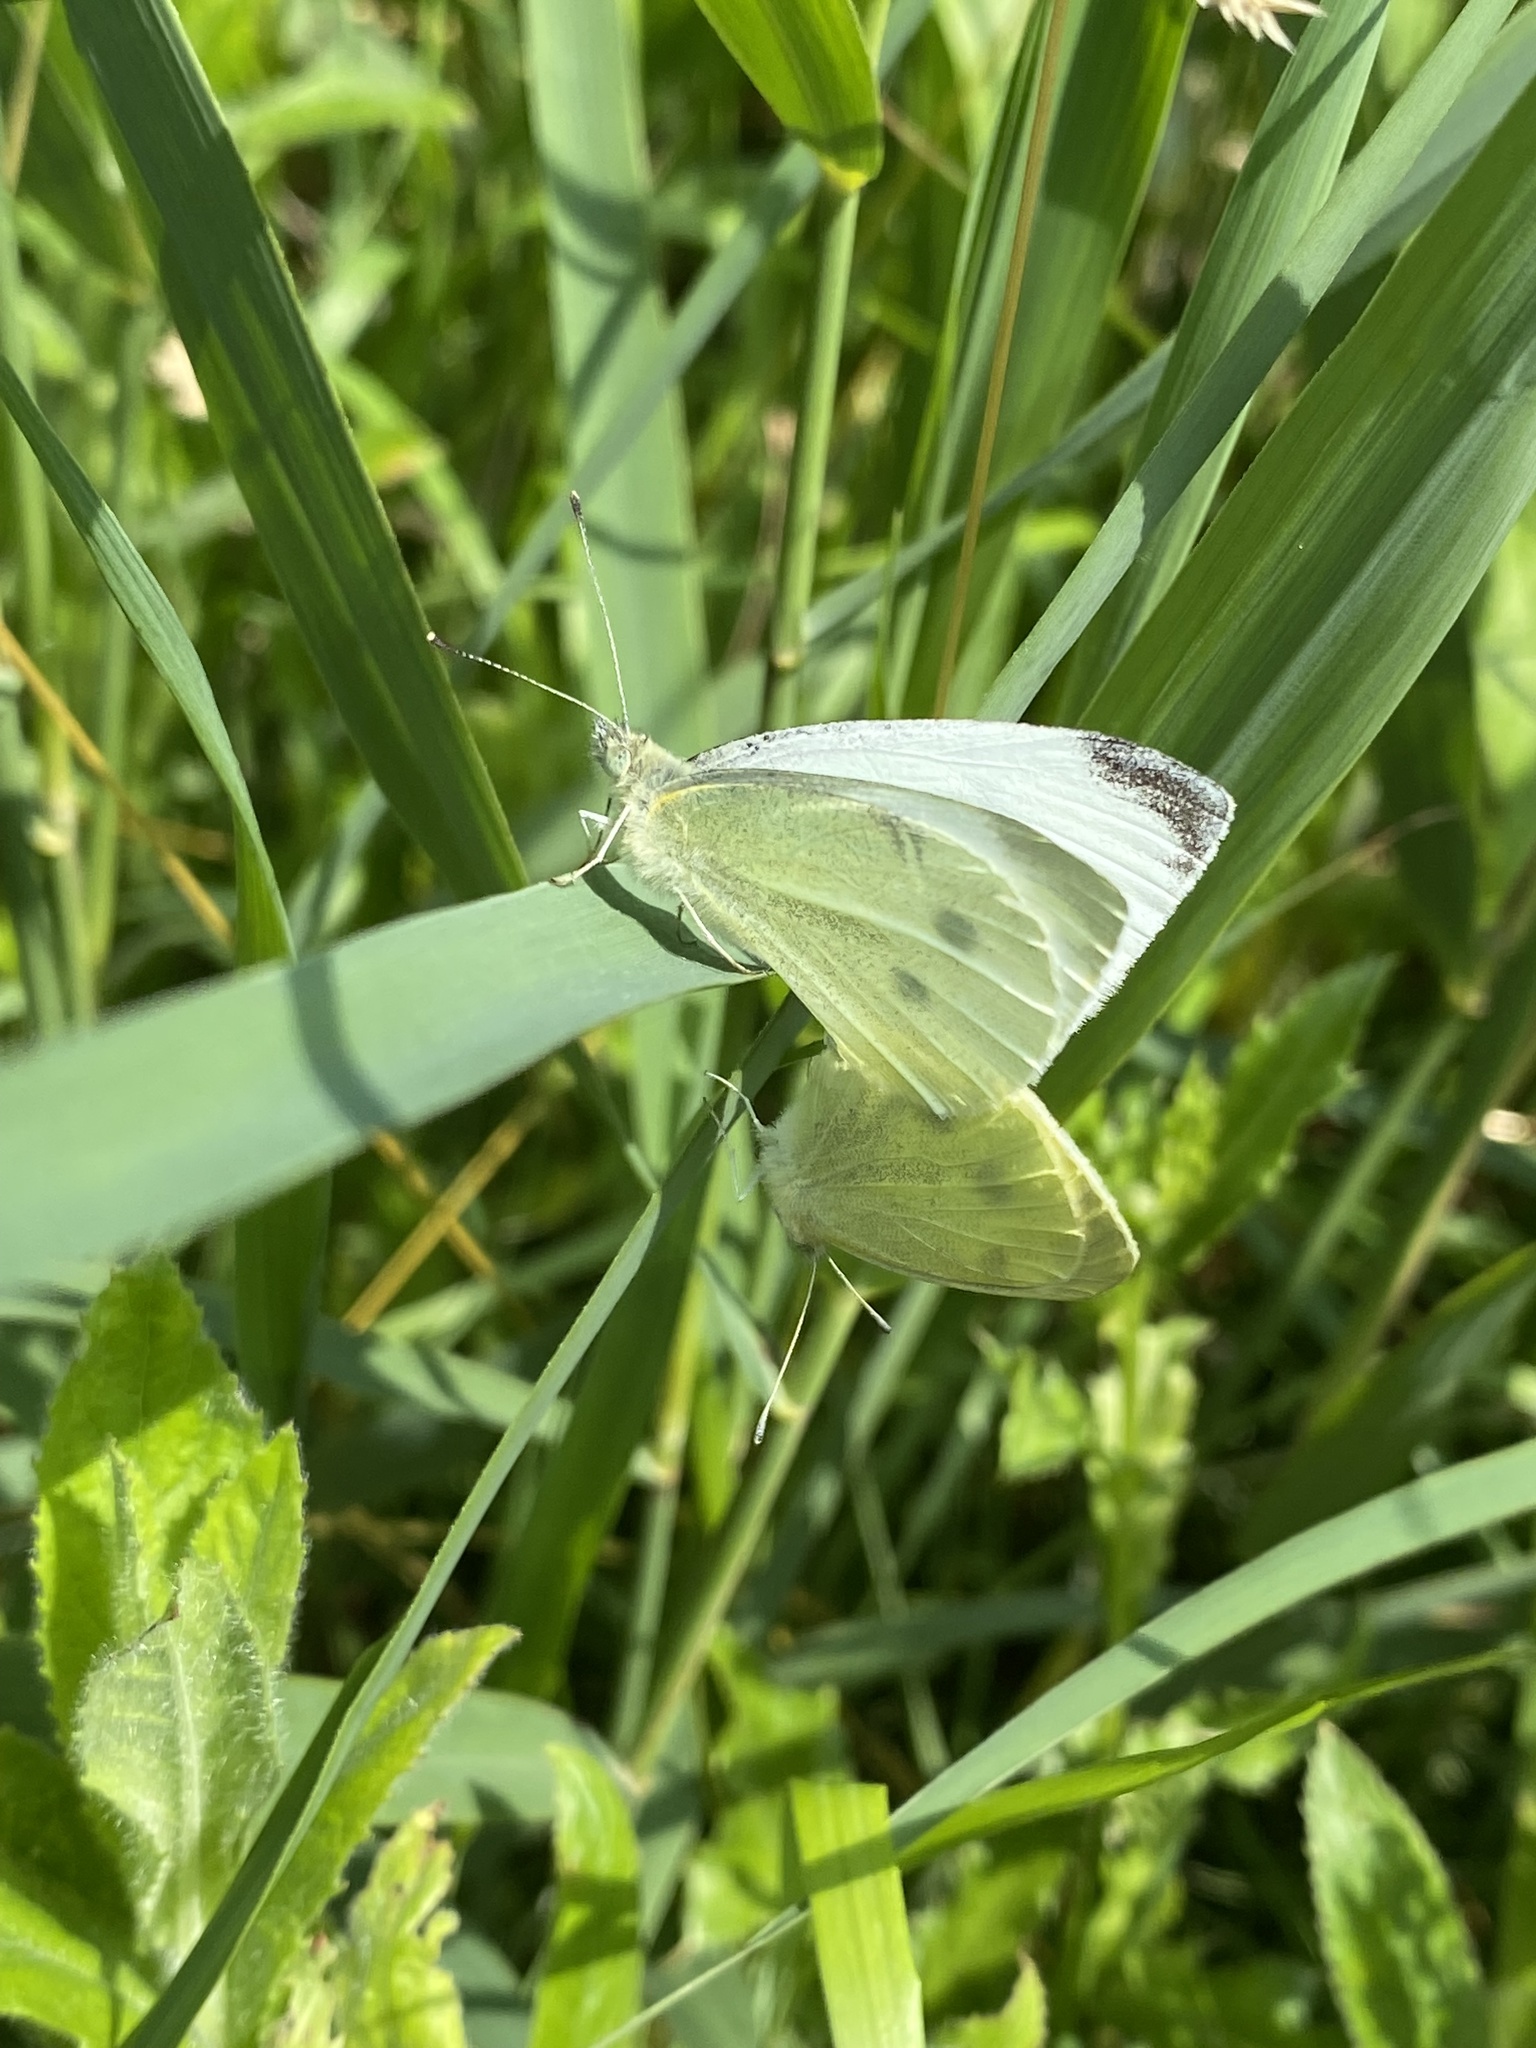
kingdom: Animalia
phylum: Arthropoda
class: Insecta
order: Lepidoptera
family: Pieridae
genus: Pieris
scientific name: Pieris rapae
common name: Small white
